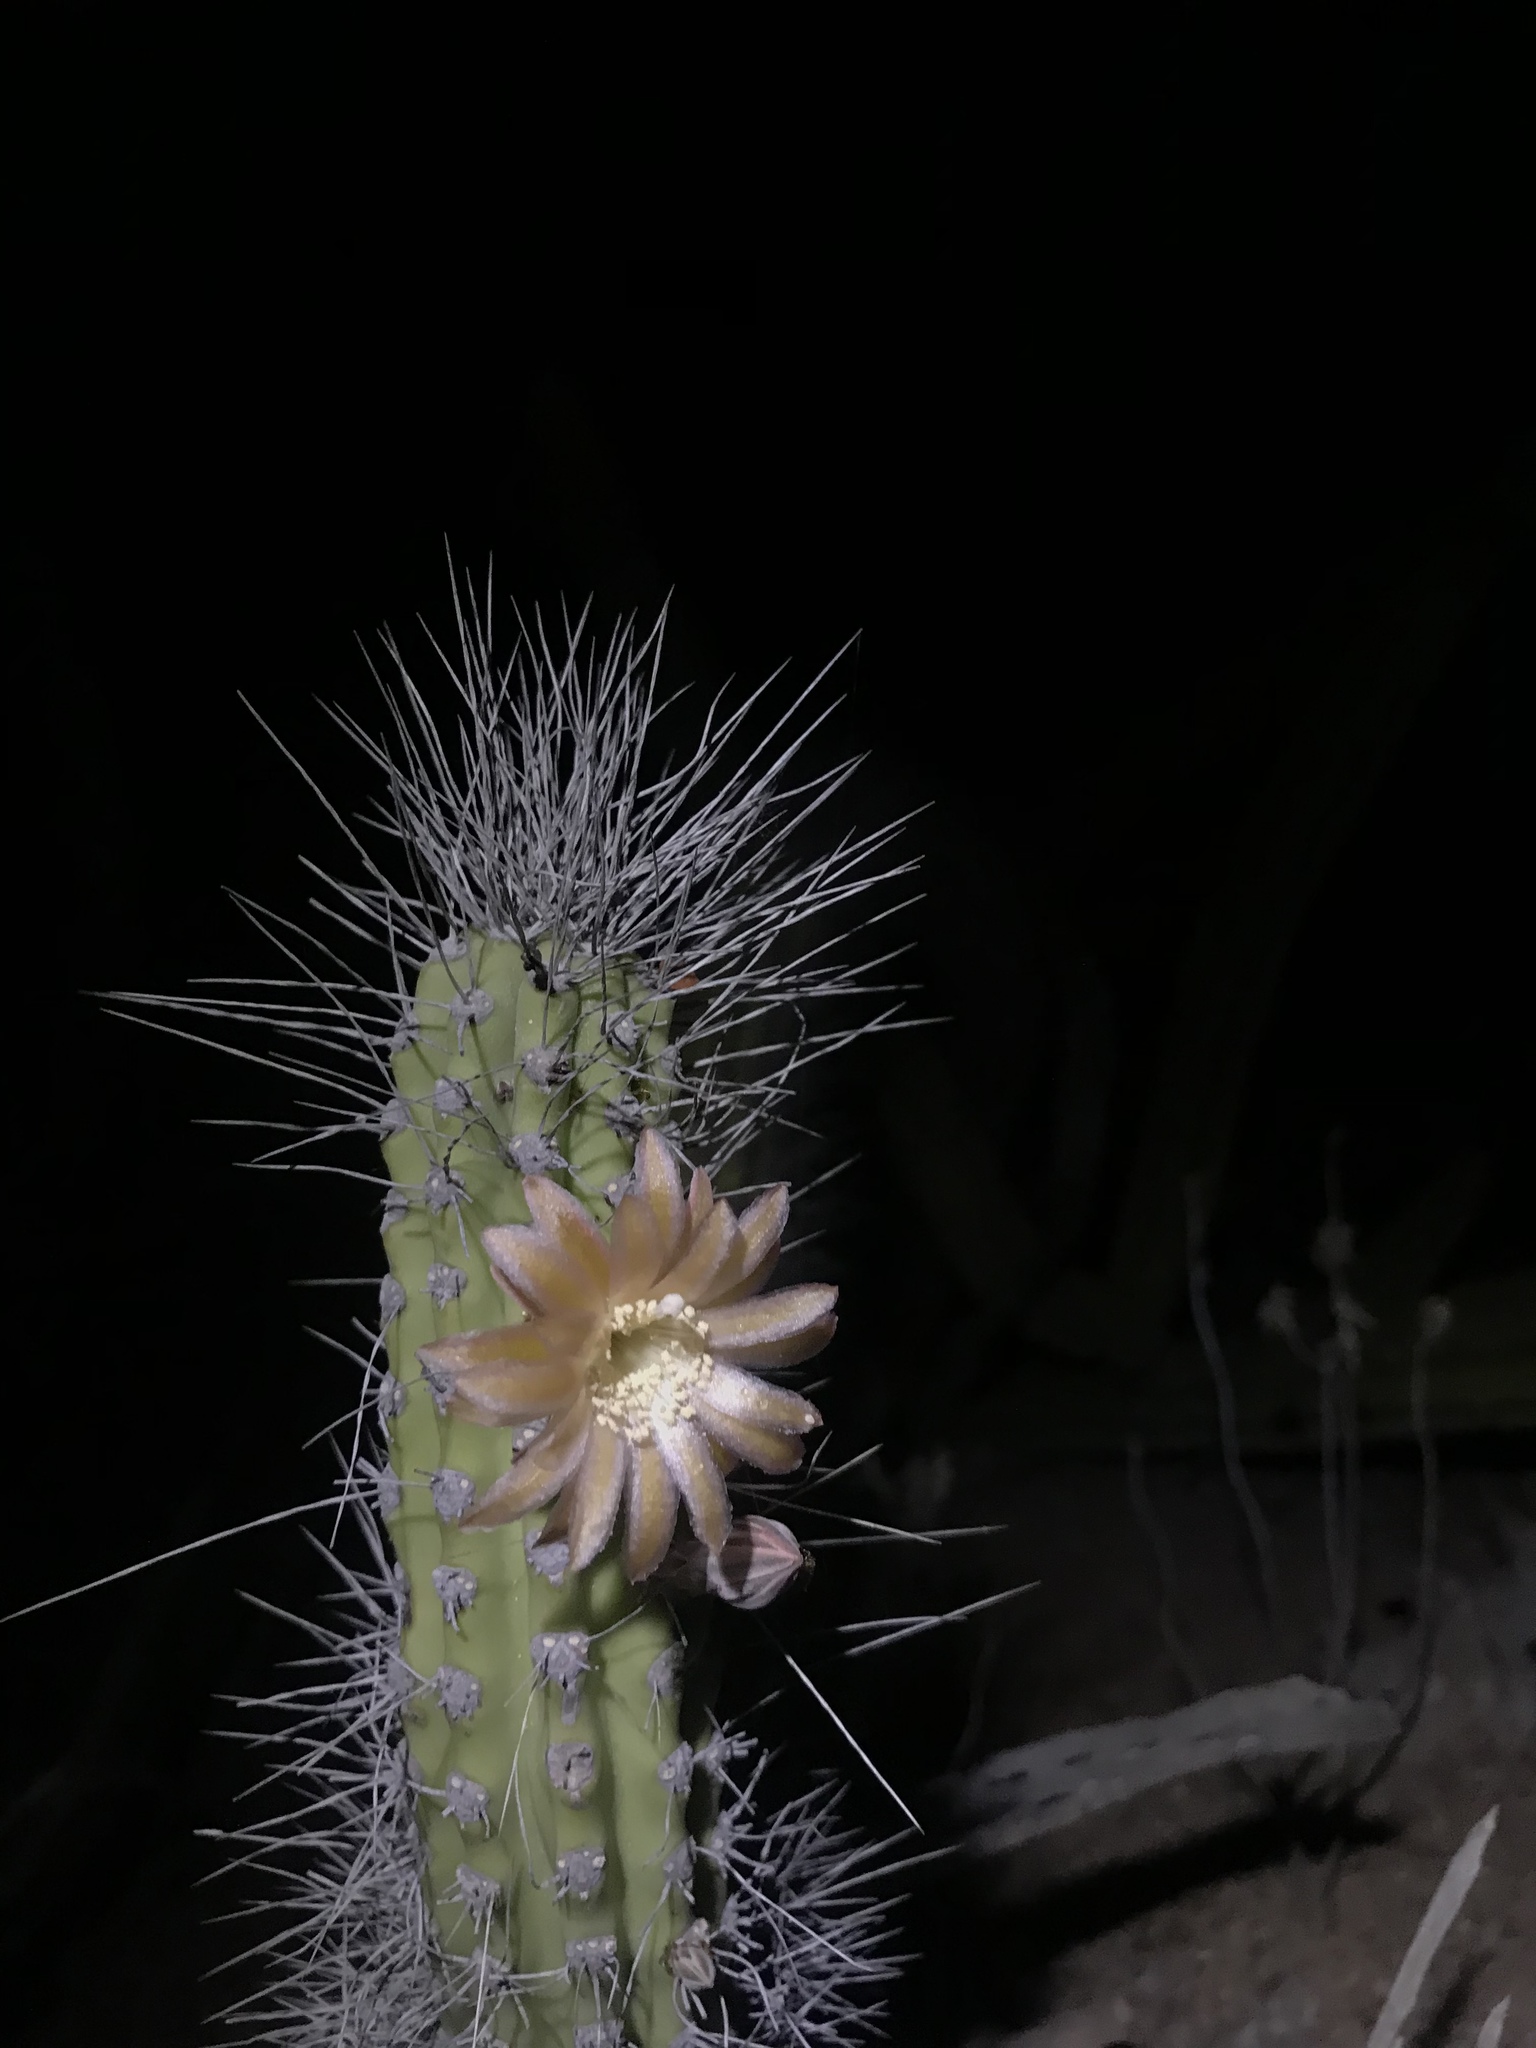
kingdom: Plantae
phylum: Tracheophyta
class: Magnoliopsida
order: Caryophyllales
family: Cactaceae
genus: Pachycereus
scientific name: Pachycereus schottii
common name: Senita cactus
